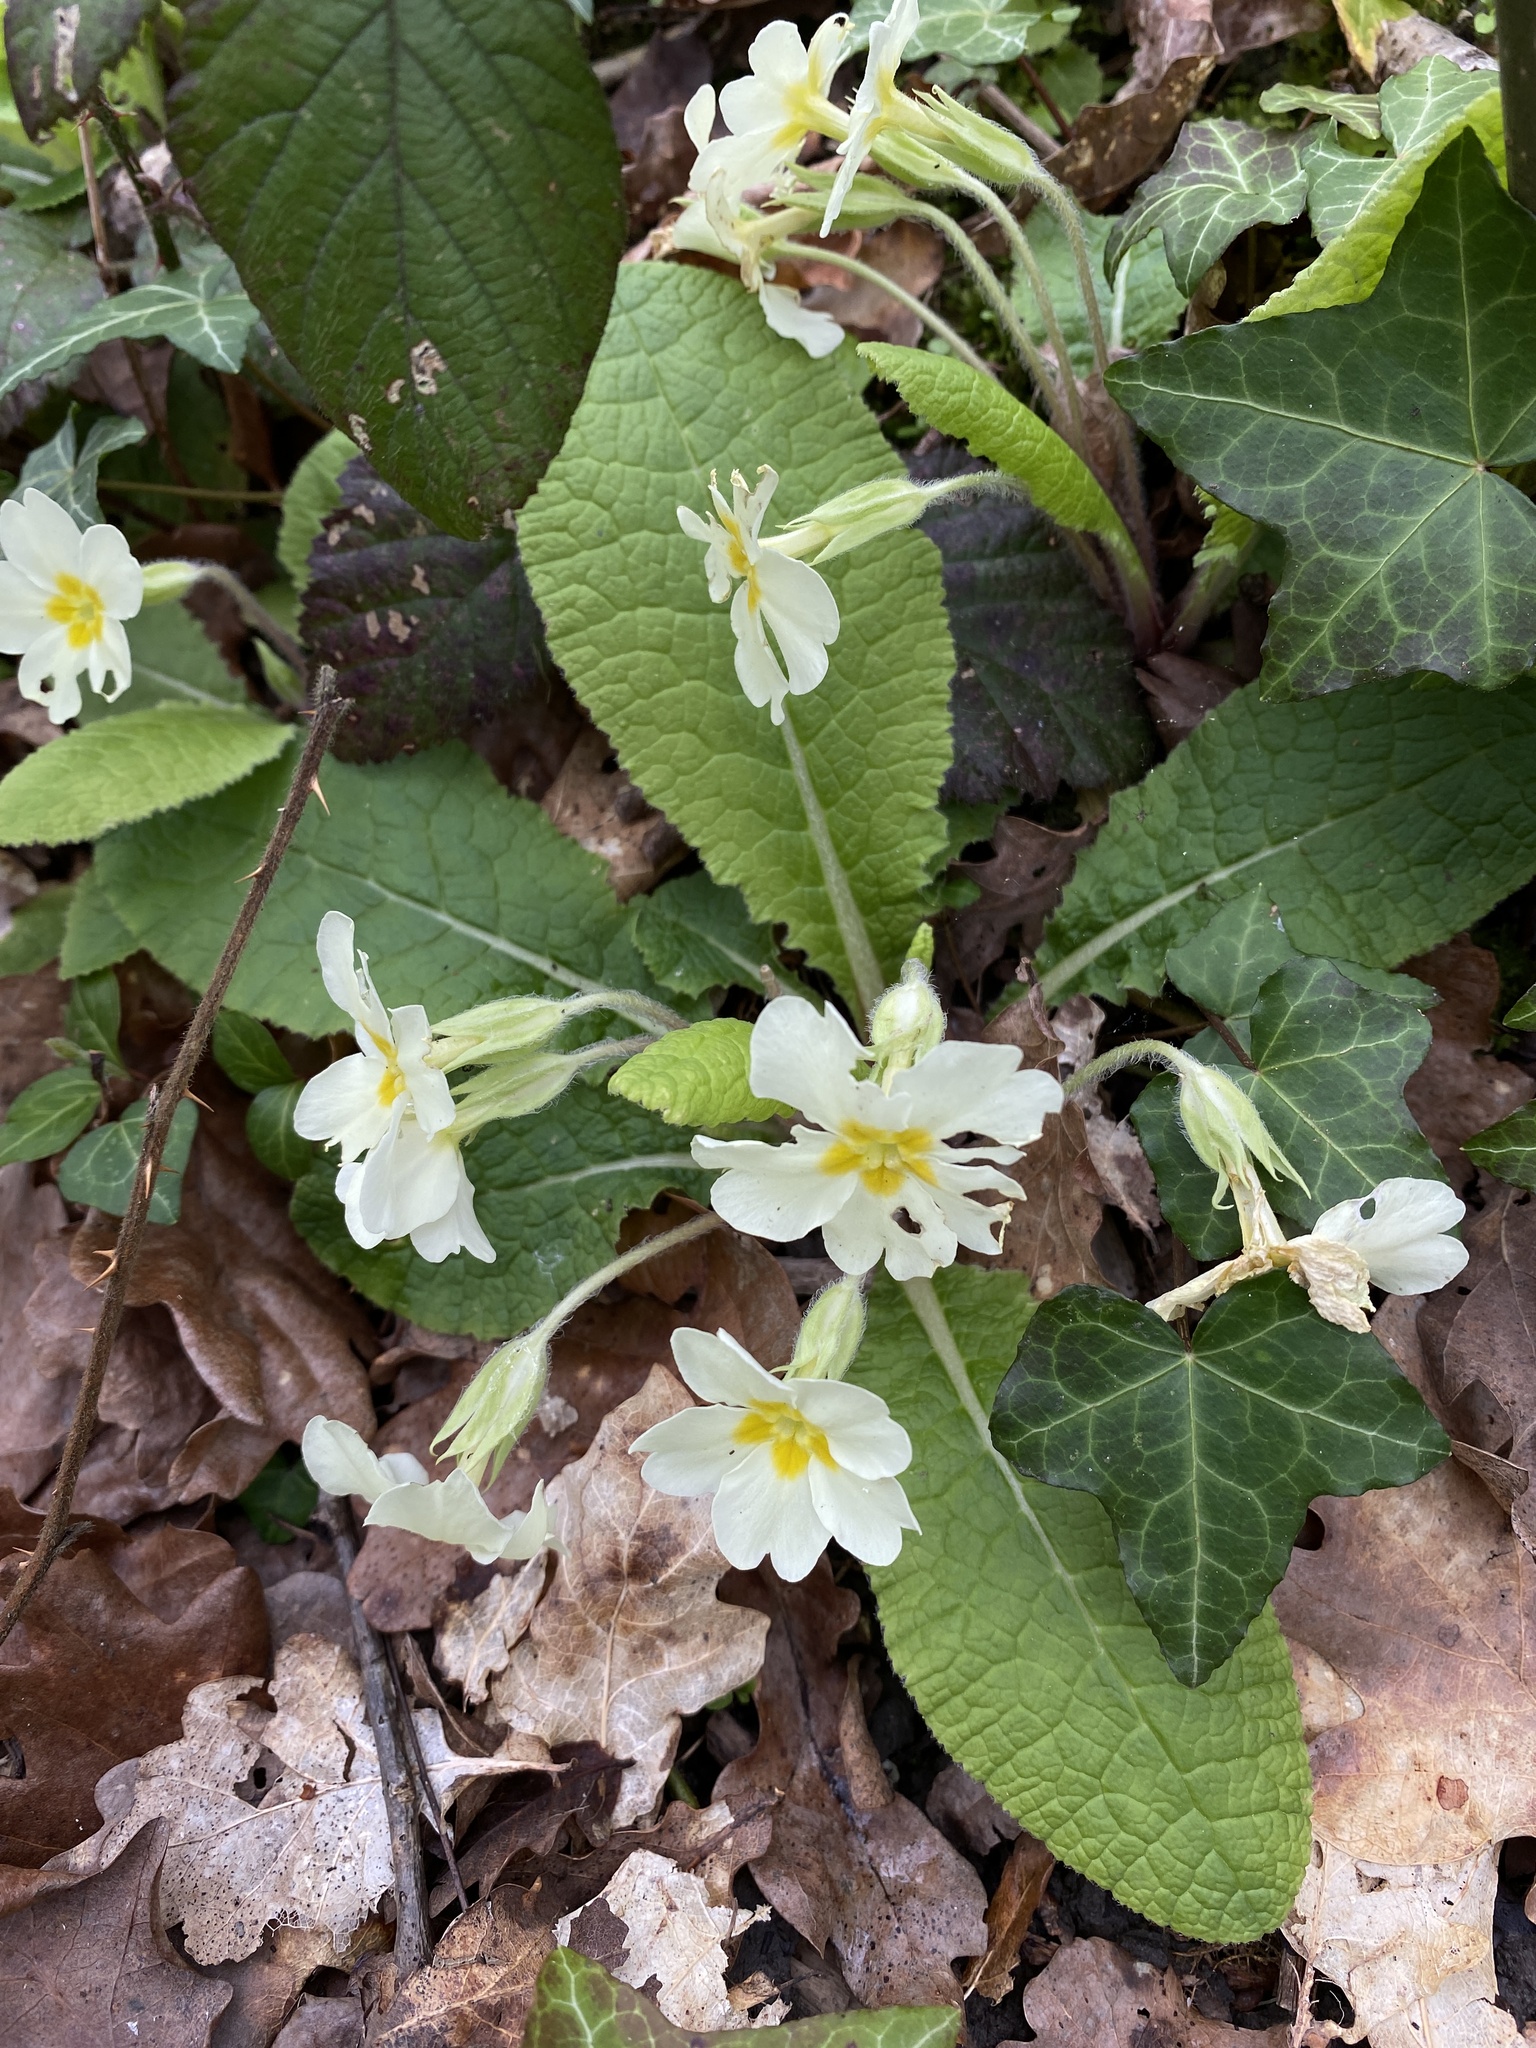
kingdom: Plantae
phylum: Tracheophyta
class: Magnoliopsida
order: Ericales
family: Primulaceae
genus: Primula
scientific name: Primula vulgaris
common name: Primrose
